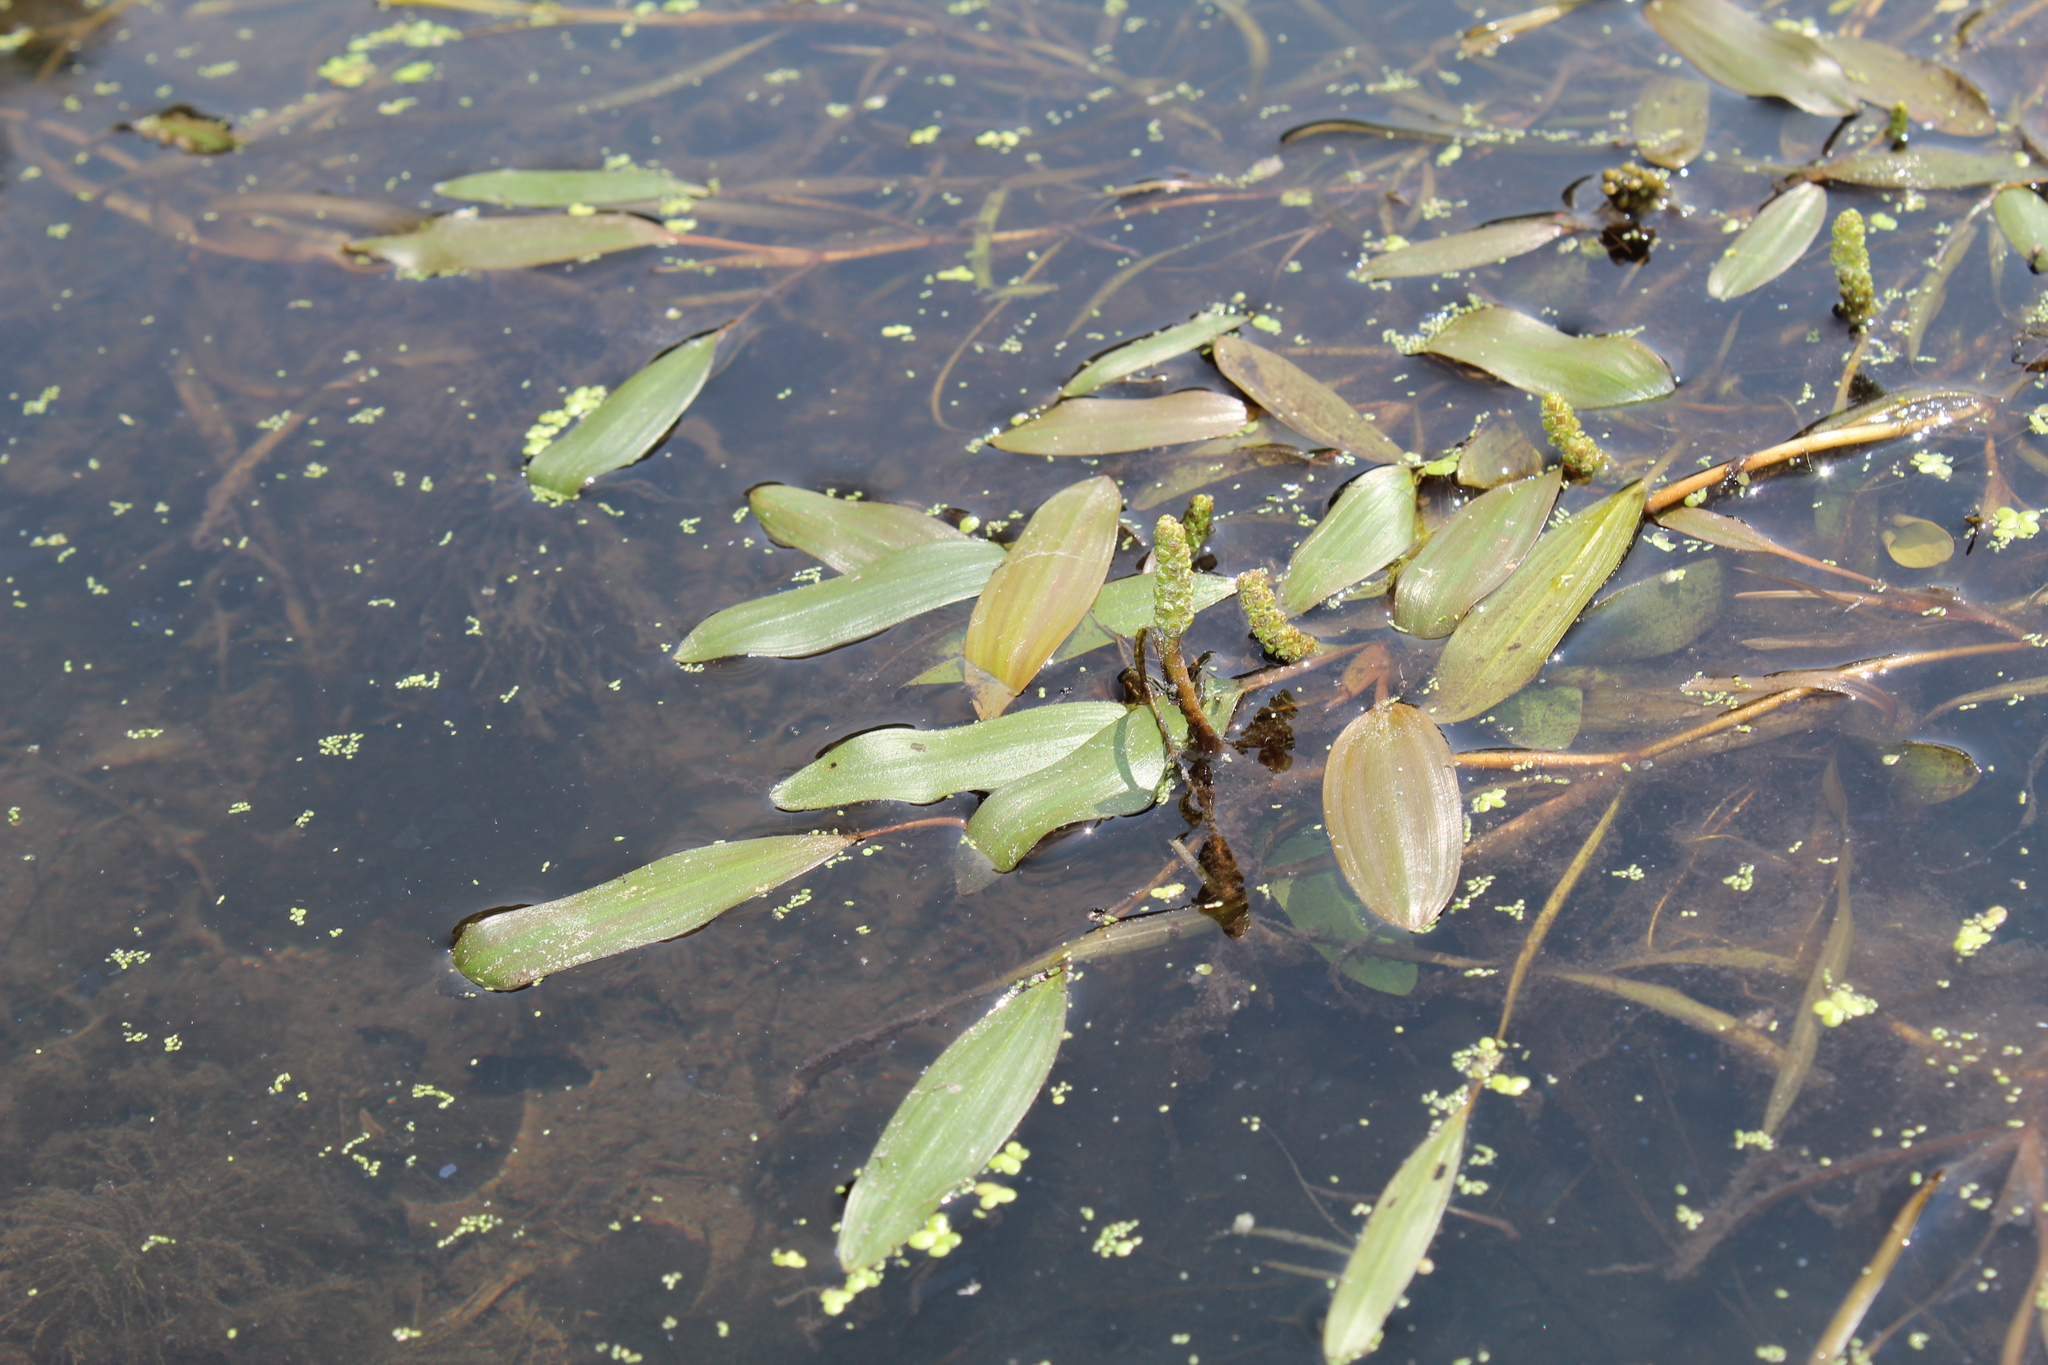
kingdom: Plantae
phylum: Tracheophyta
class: Liliopsida
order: Alismatales
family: Potamogetonaceae
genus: Potamogeton
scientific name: Potamogeton epihydrus
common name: American pondweed
